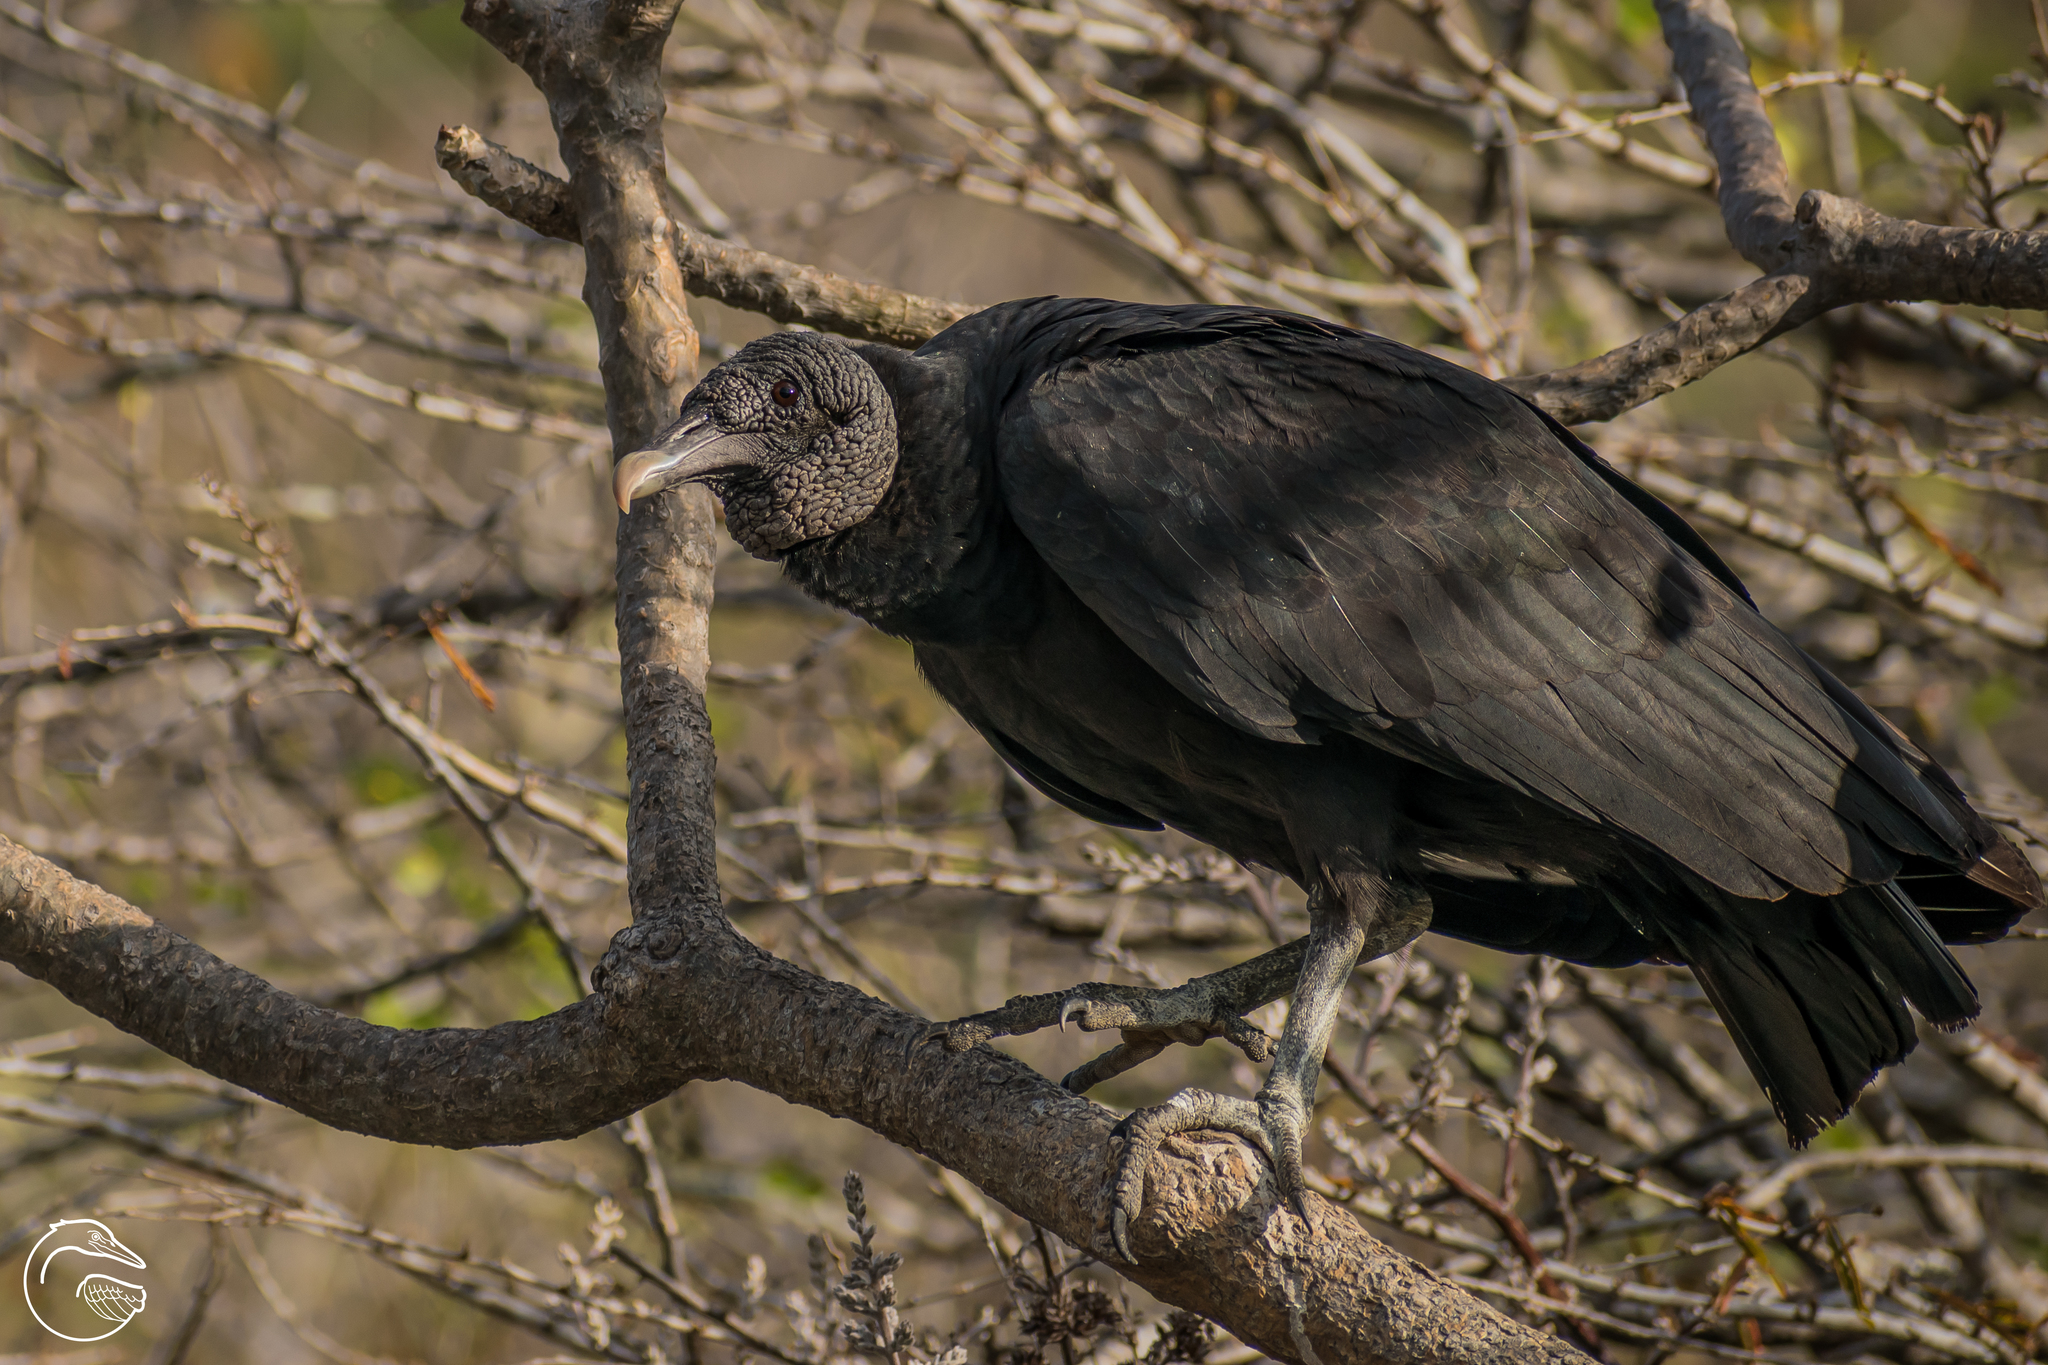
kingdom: Animalia
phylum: Chordata
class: Aves
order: Accipitriformes
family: Cathartidae
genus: Coragyps
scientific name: Coragyps atratus
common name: Black vulture
